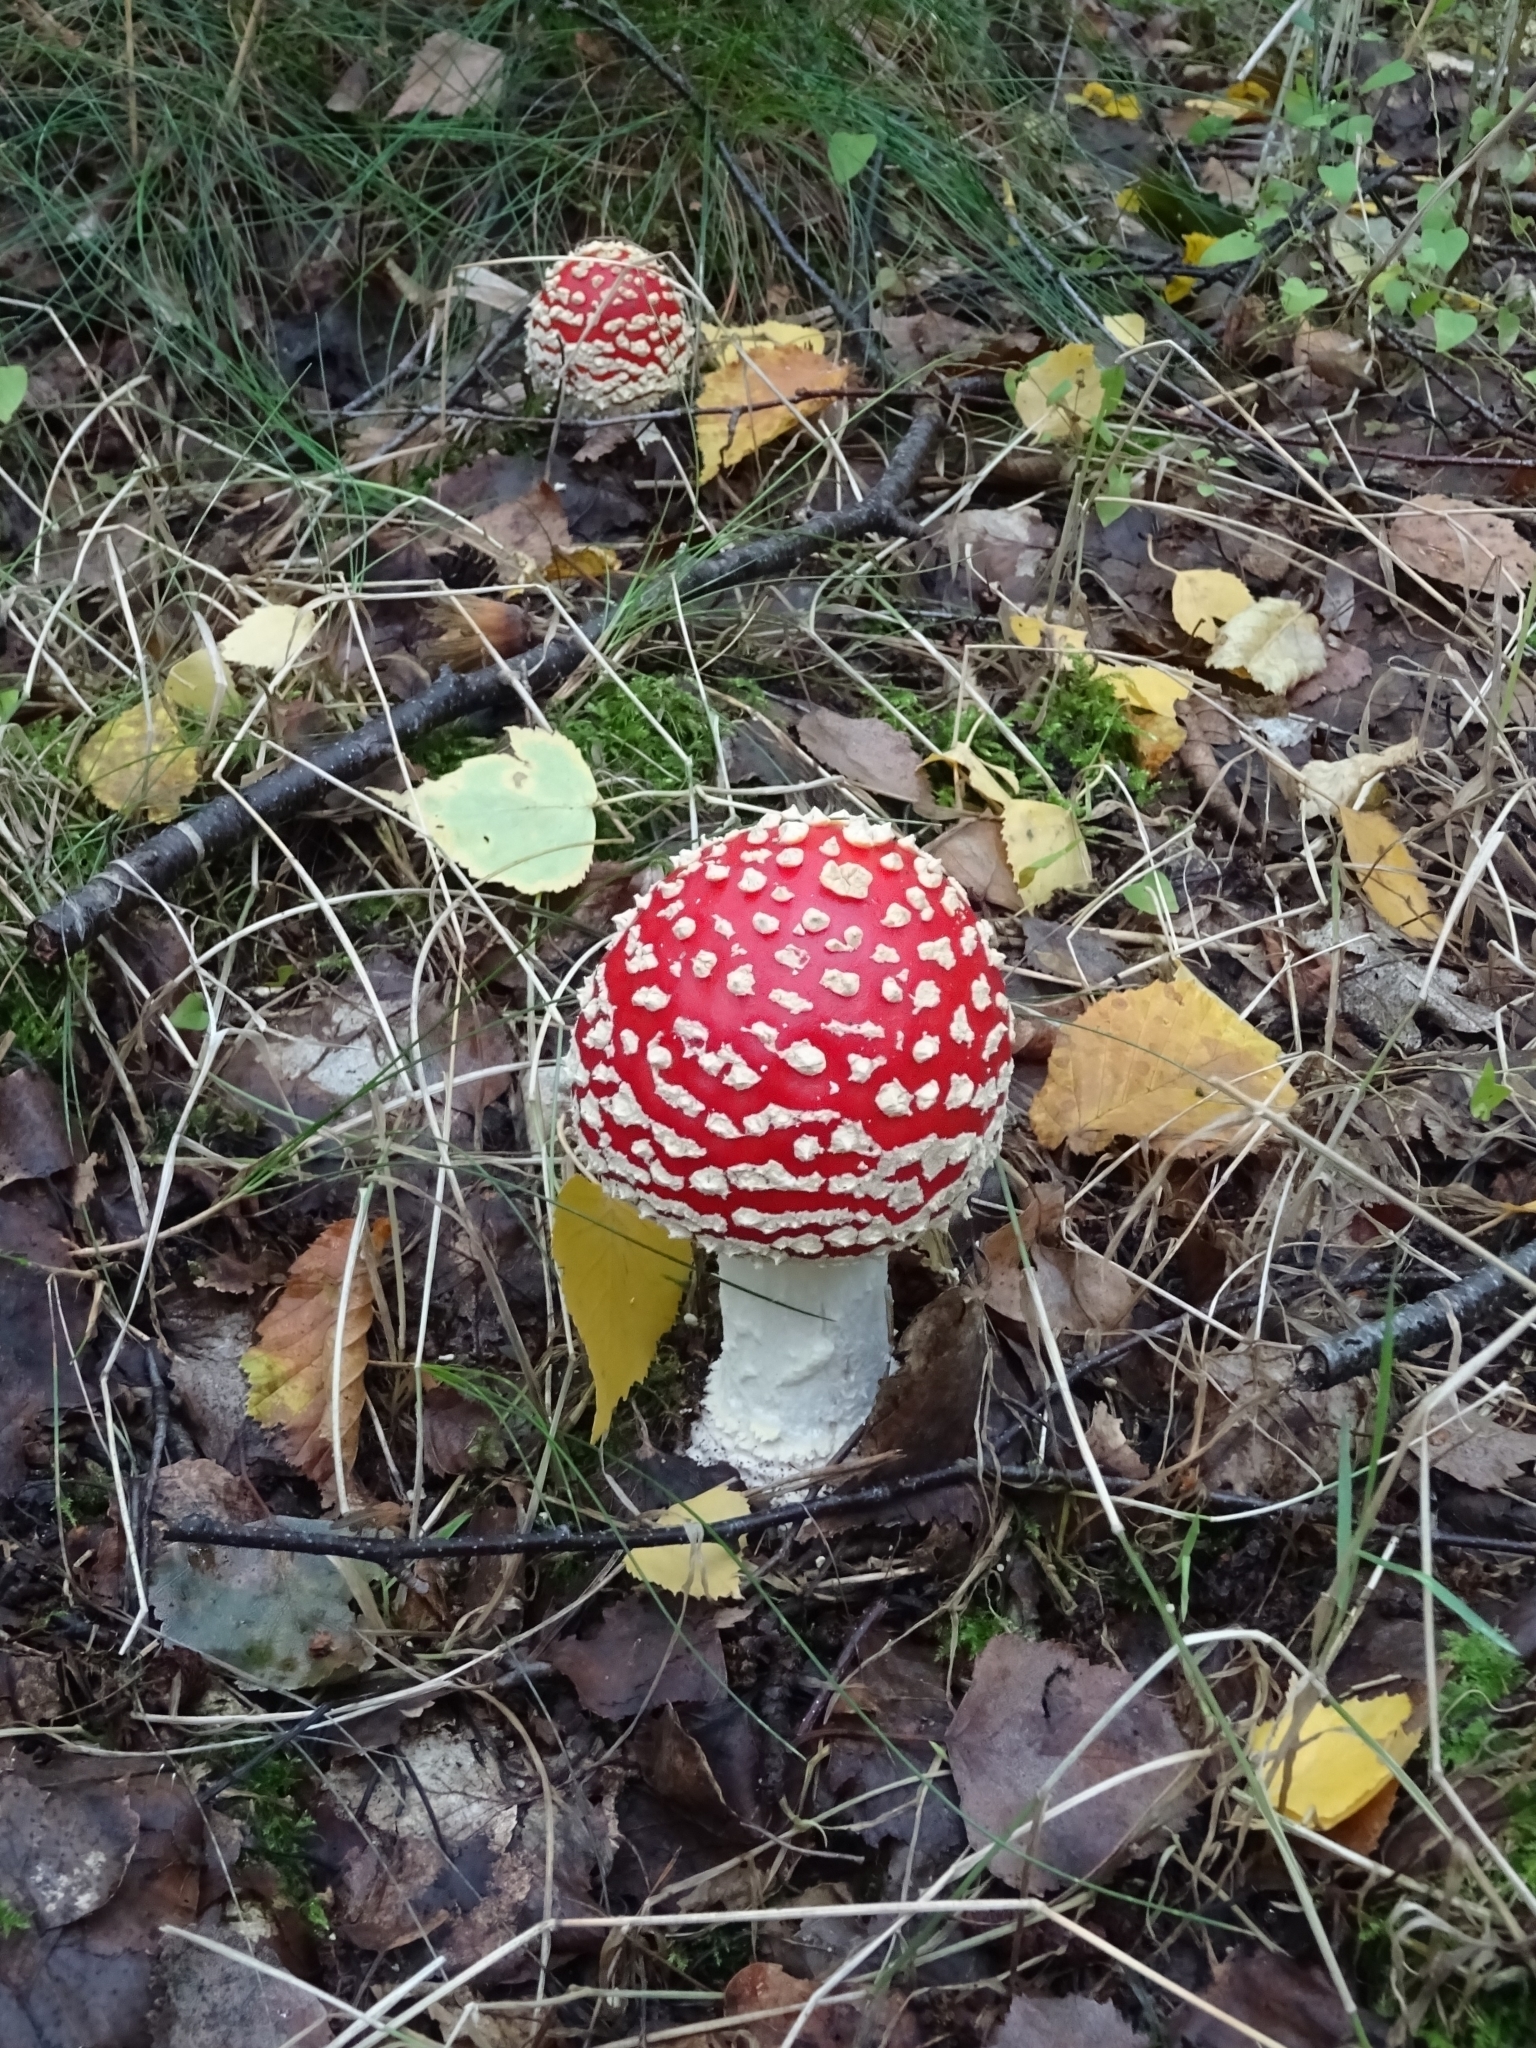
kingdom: Fungi
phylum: Basidiomycota
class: Agaricomycetes
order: Agaricales
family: Amanitaceae
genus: Amanita
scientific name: Amanita muscaria
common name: Fly agaric
